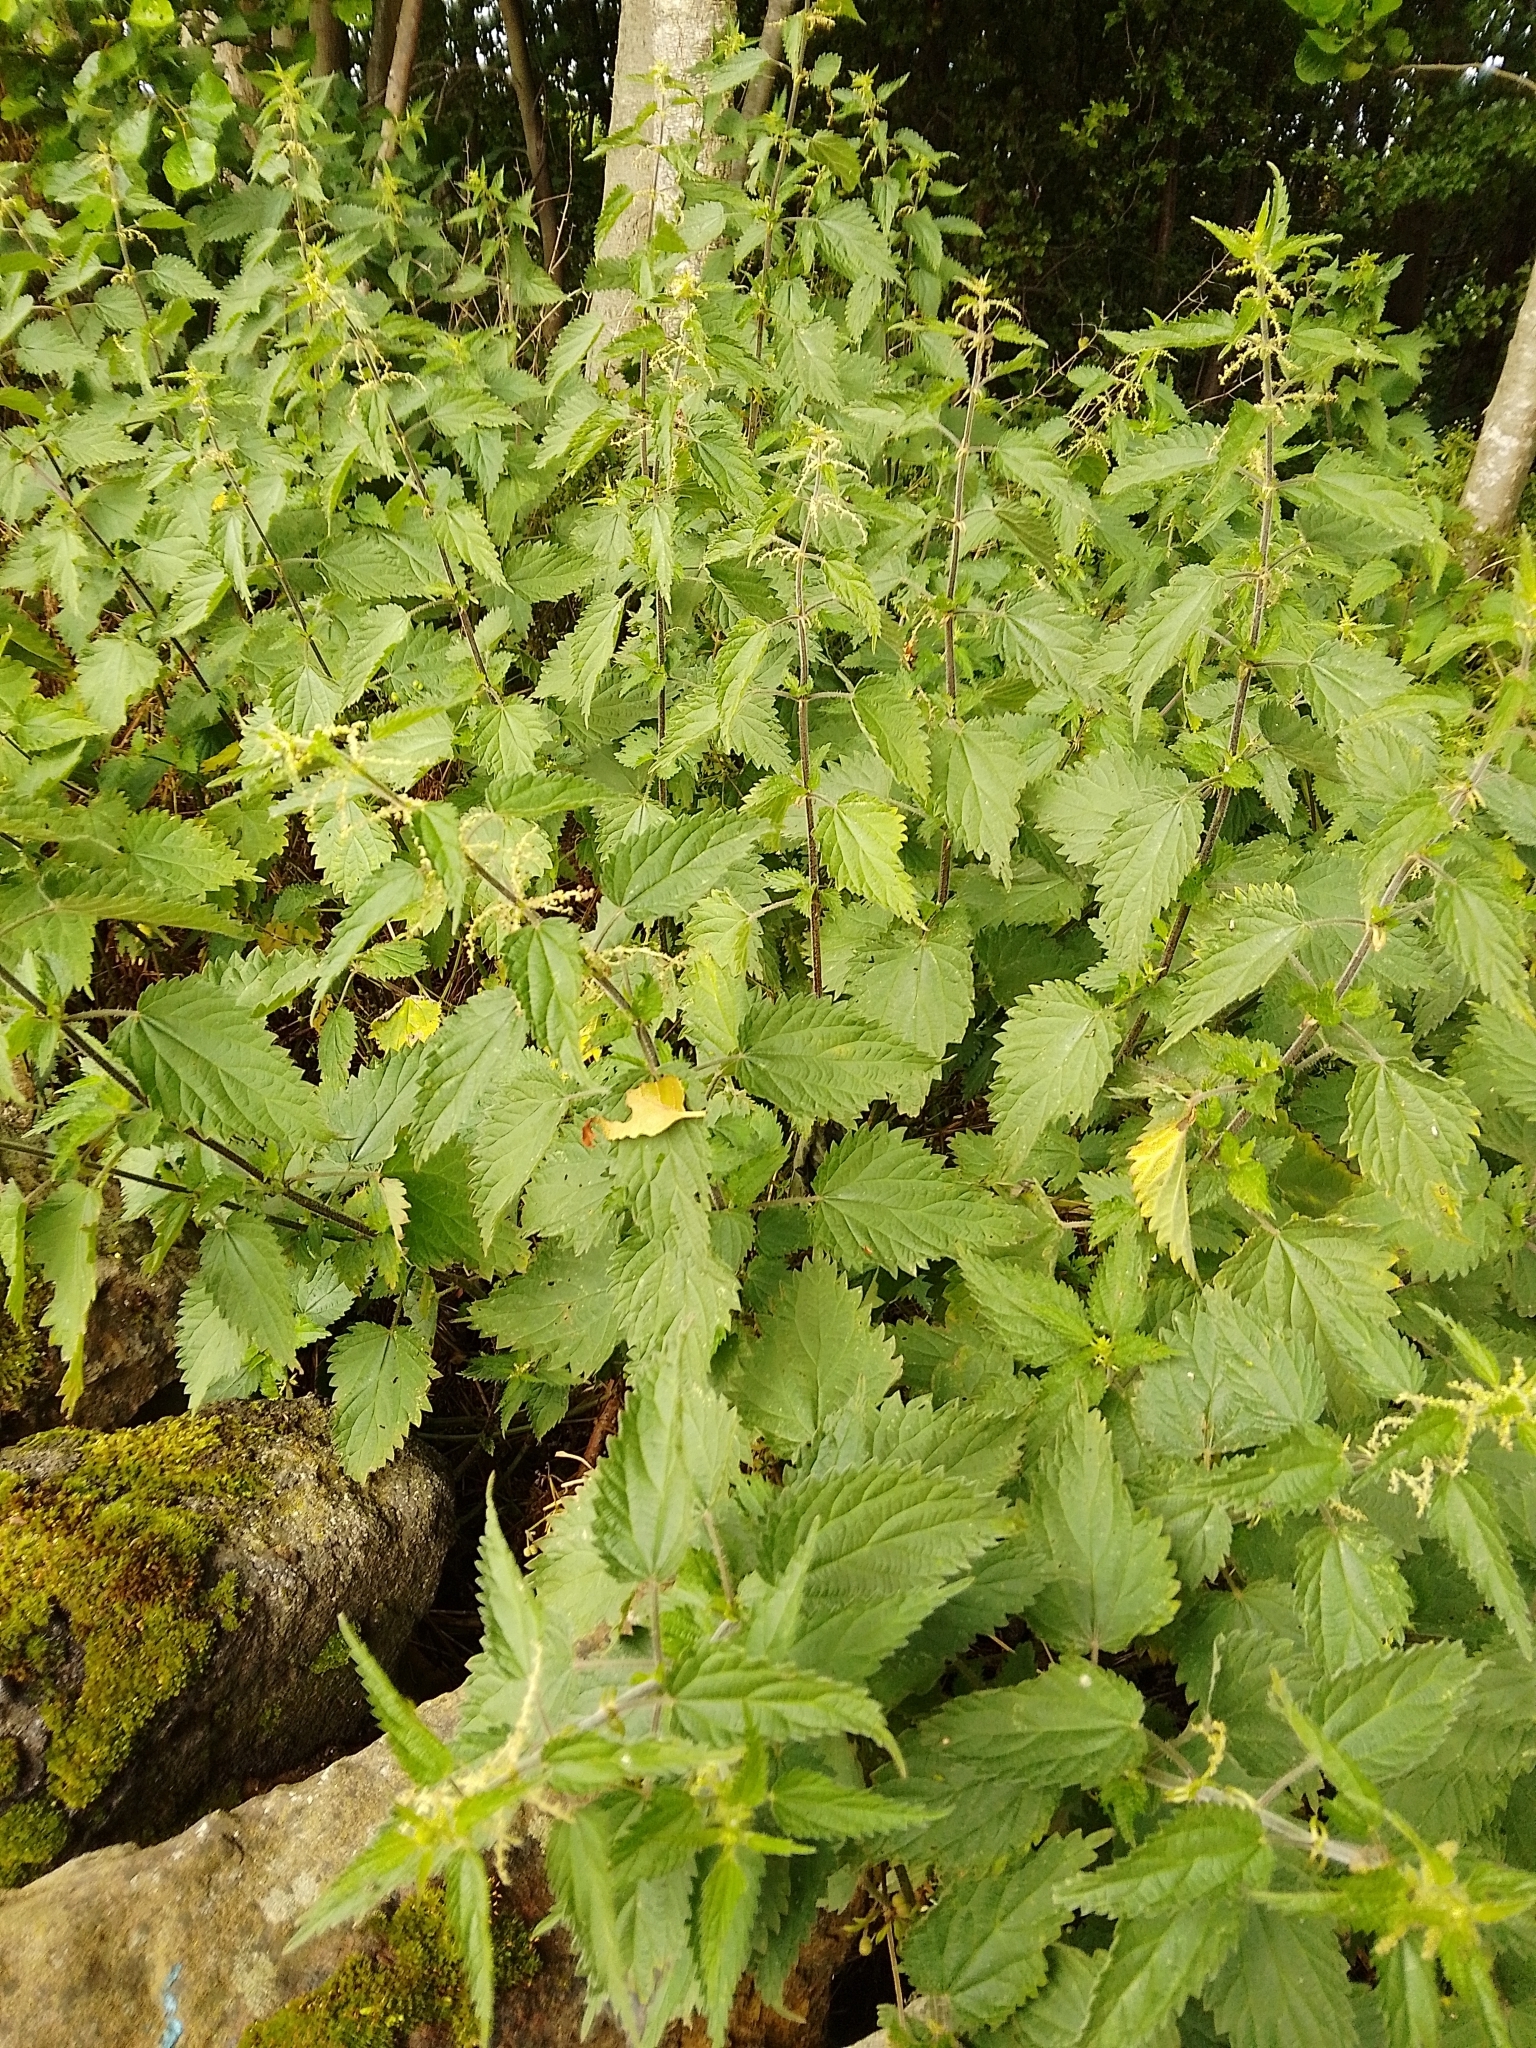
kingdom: Plantae
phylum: Tracheophyta
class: Magnoliopsida
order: Rosales
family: Urticaceae
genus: Urtica
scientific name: Urtica dioica
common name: Common nettle
